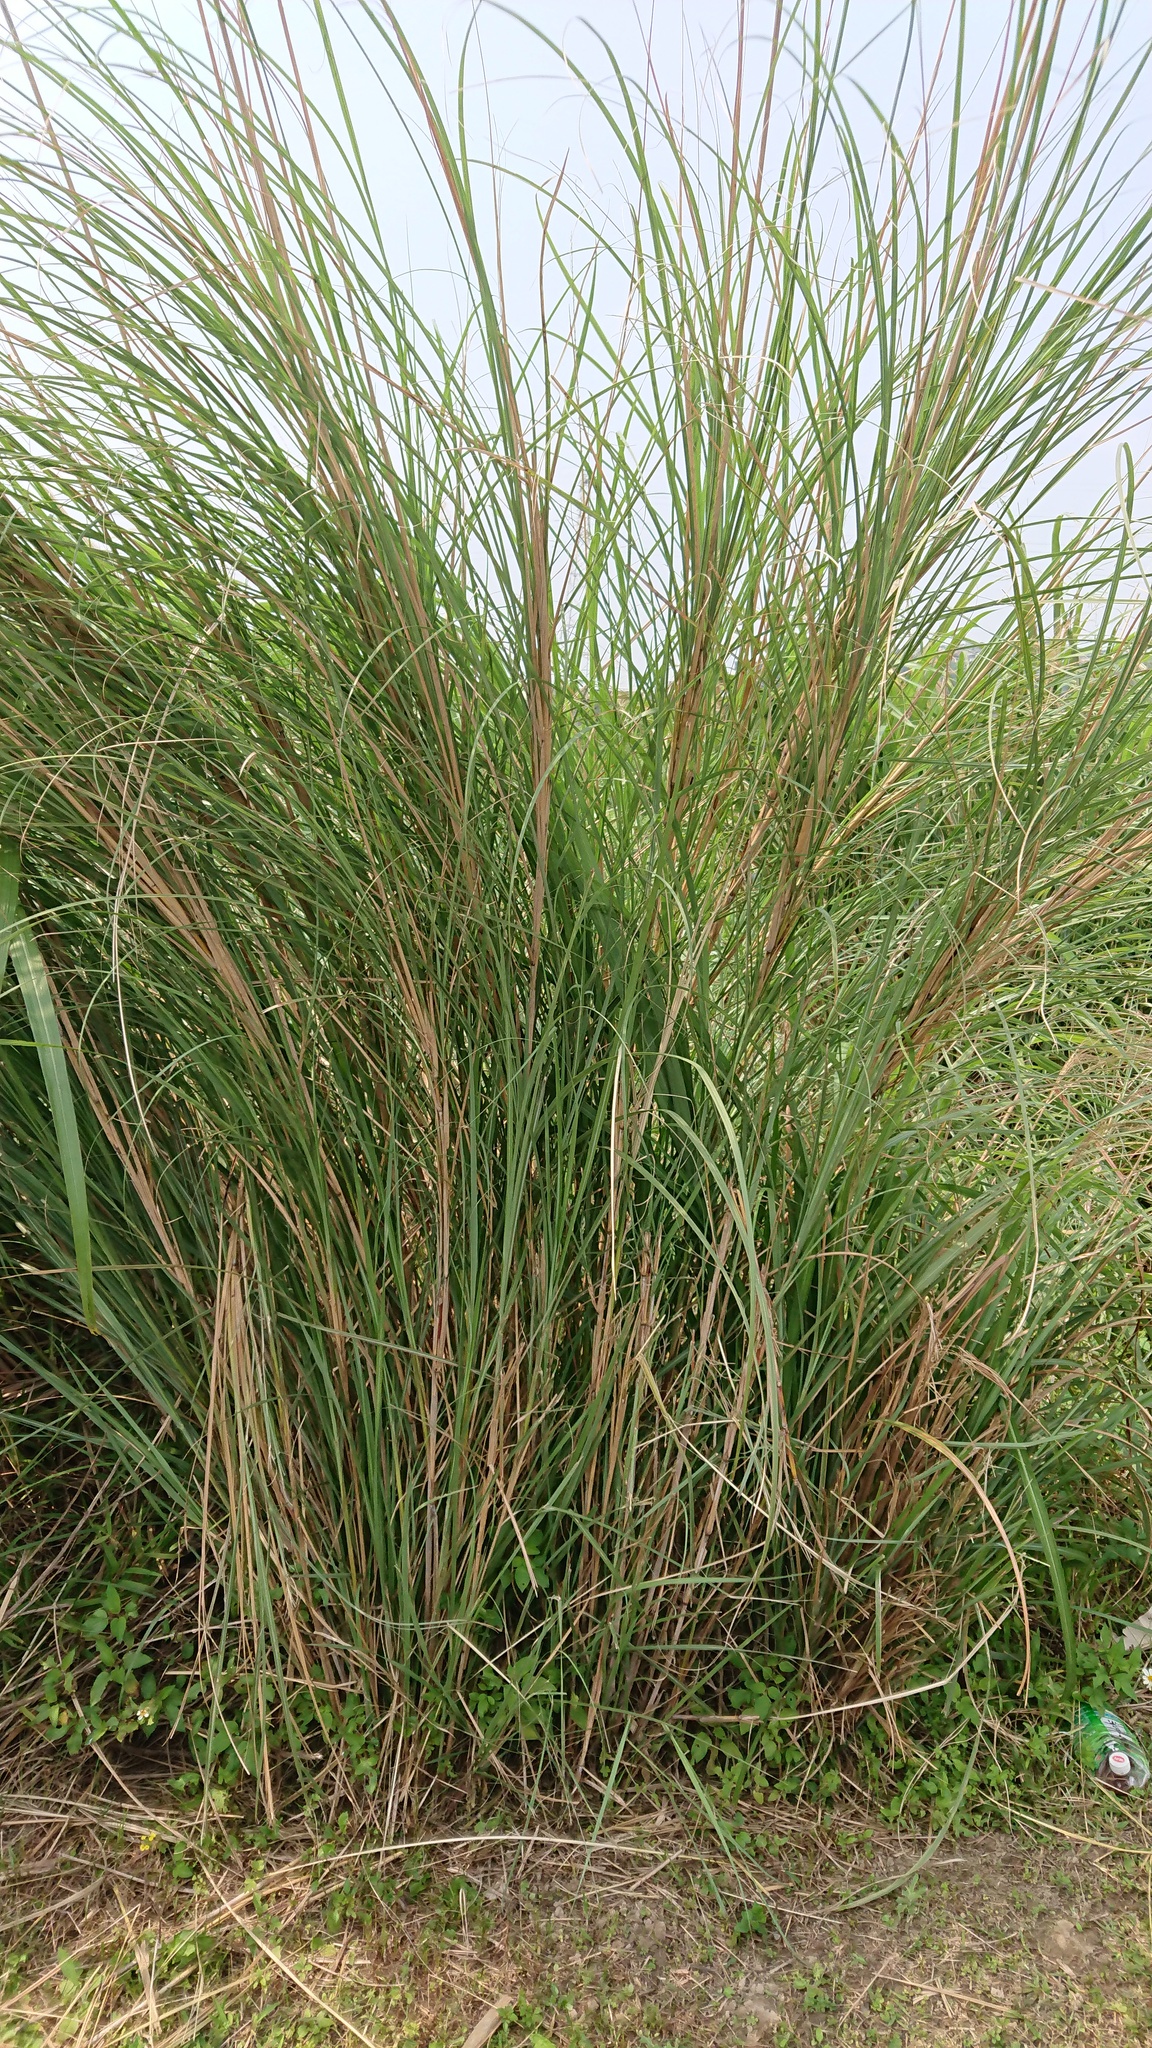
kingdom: Plantae
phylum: Tracheophyta
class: Liliopsida
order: Poales
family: Poaceae
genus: Saccharum
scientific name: Saccharum spontaneum
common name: Wild sugarcane
